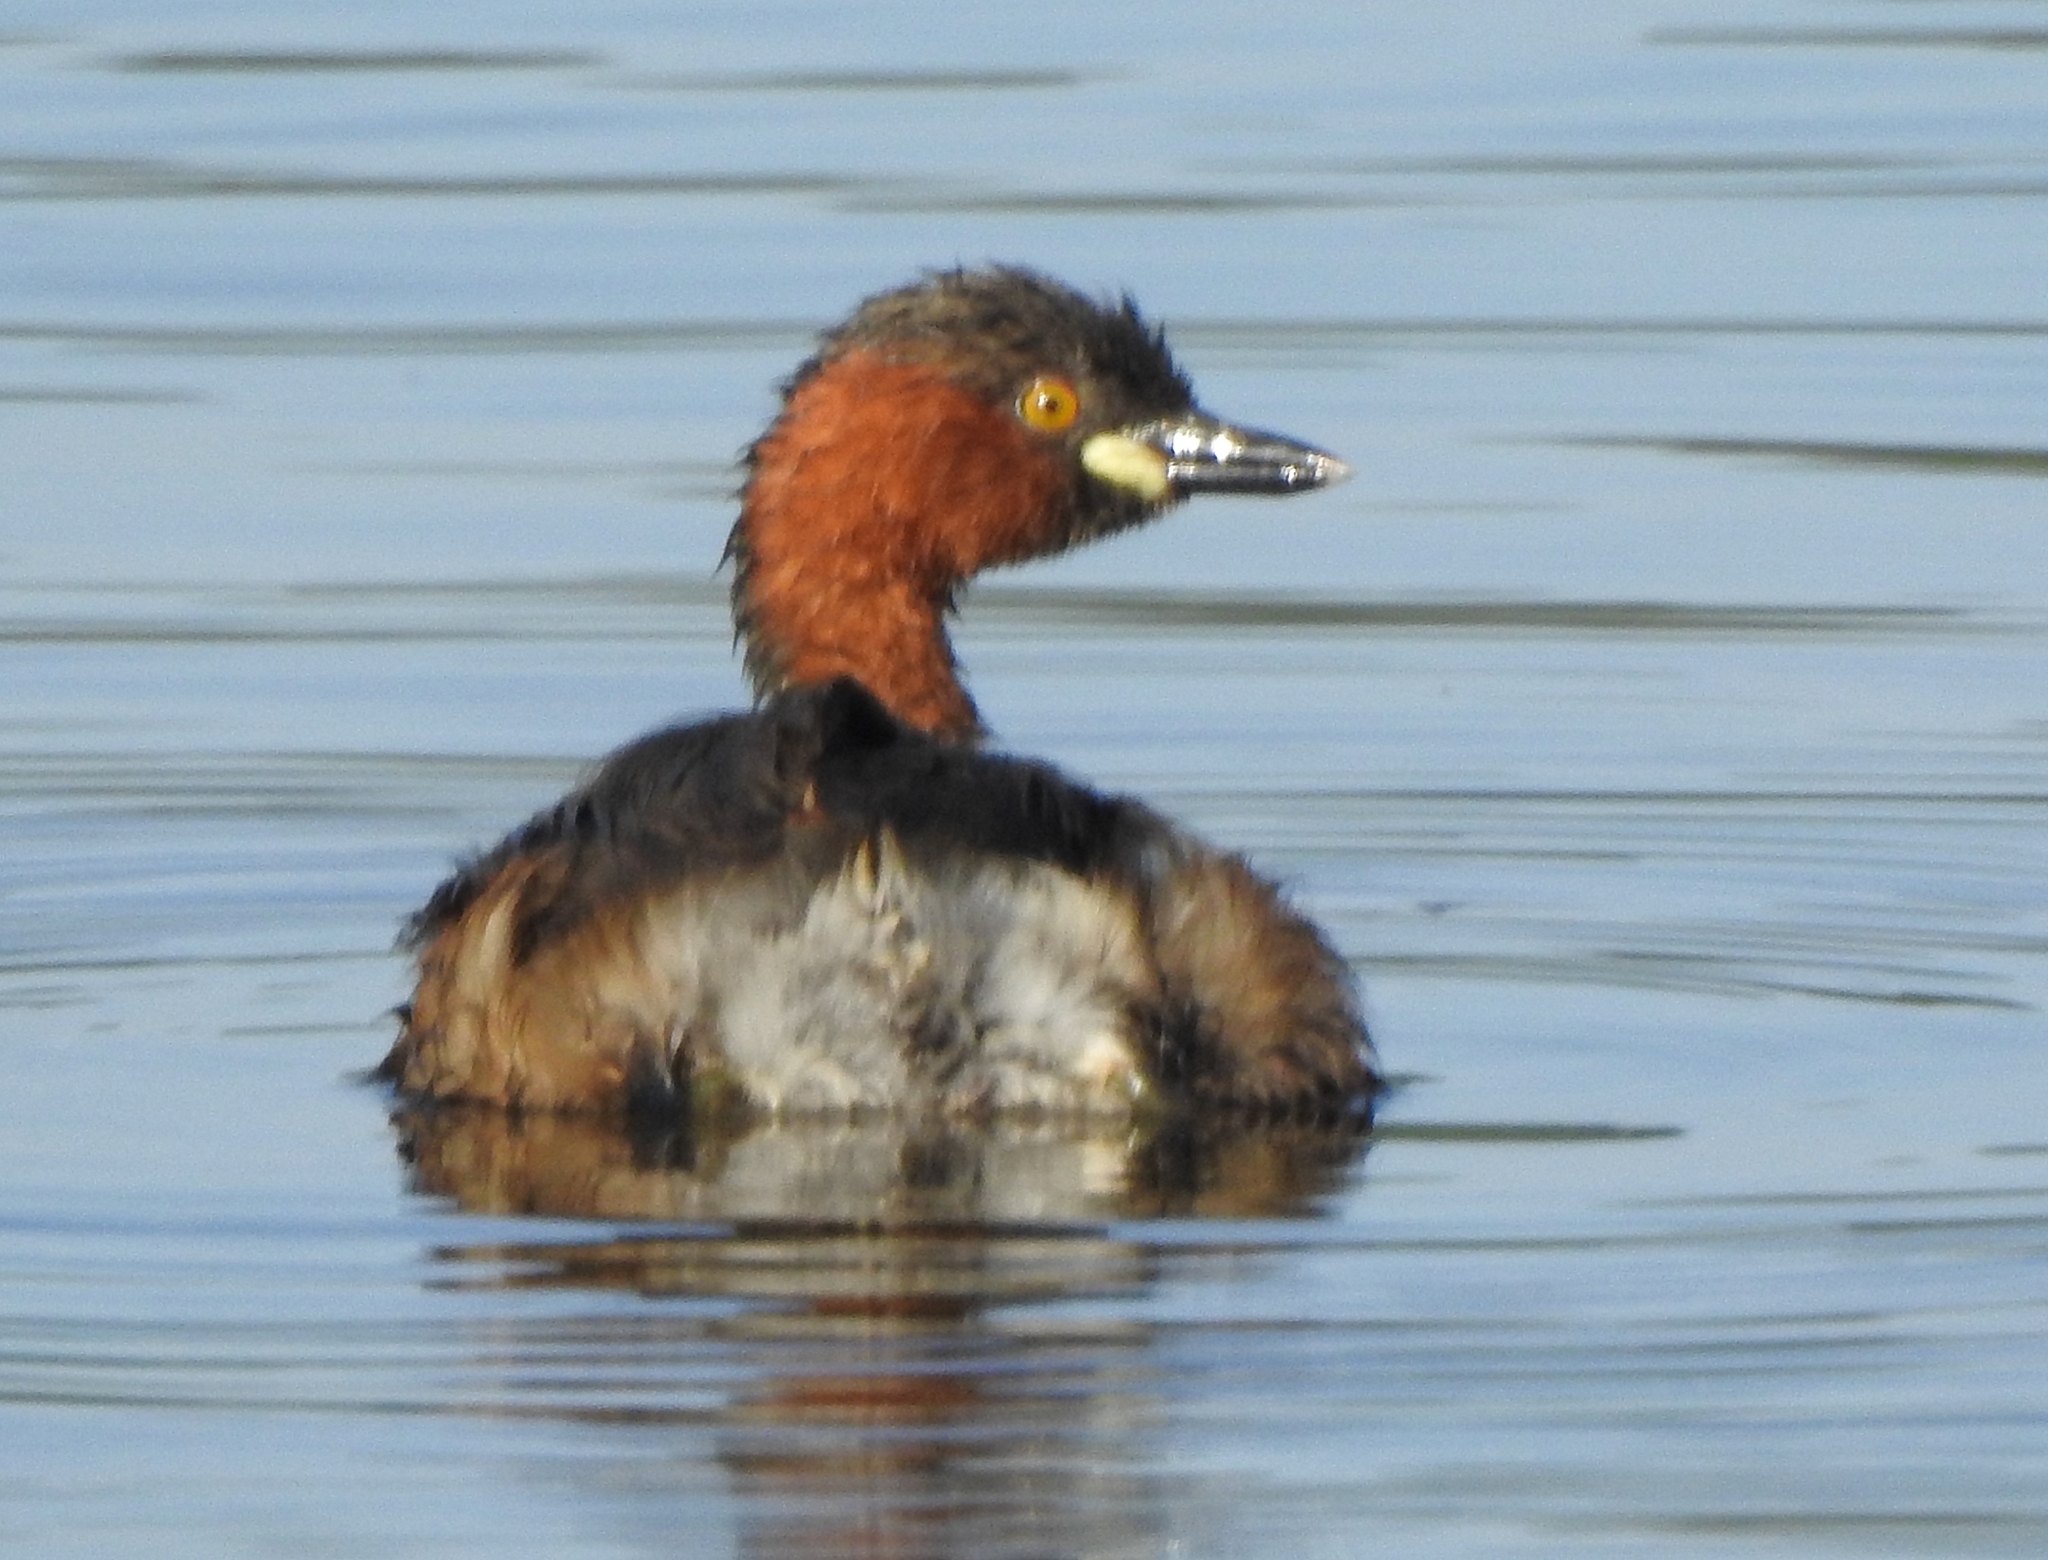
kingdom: Animalia
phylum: Chordata
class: Aves
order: Podicipediformes
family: Podicipedidae
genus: Tachybaptus
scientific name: Tachybaptus ruficollis
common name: Little grebe
